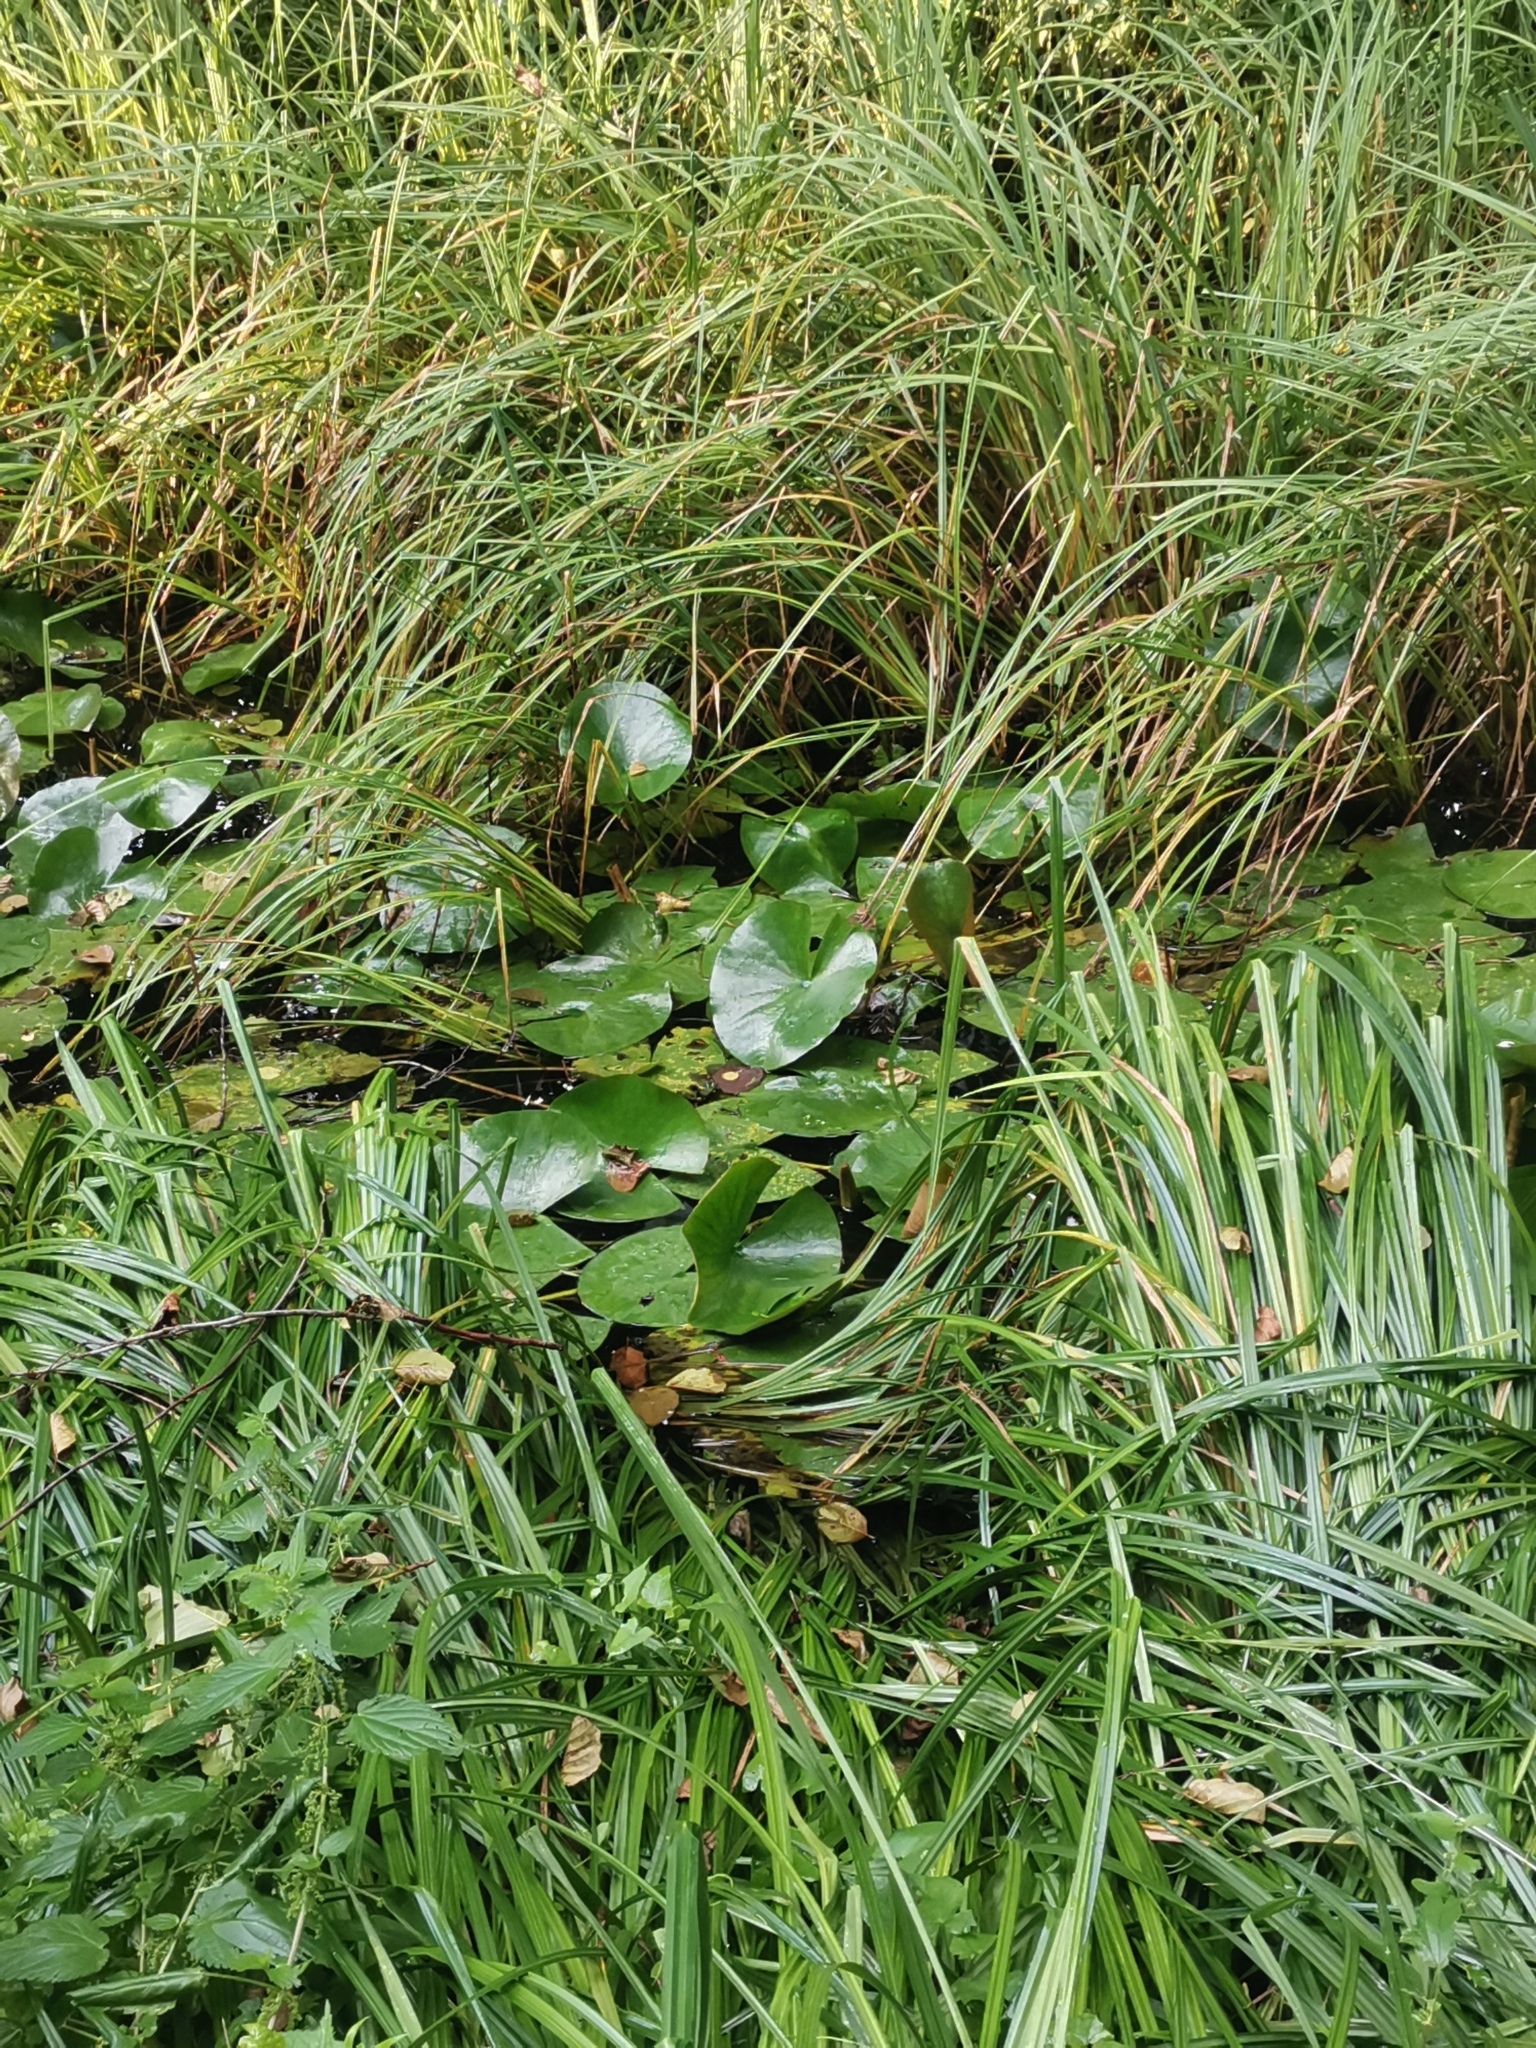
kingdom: Plantae
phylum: Tracheophyta
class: Magnoliopsida
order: Nymphaeales
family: Nymphaeaceae
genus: Nymphaea
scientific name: Nymphaea alba
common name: White water-lily
